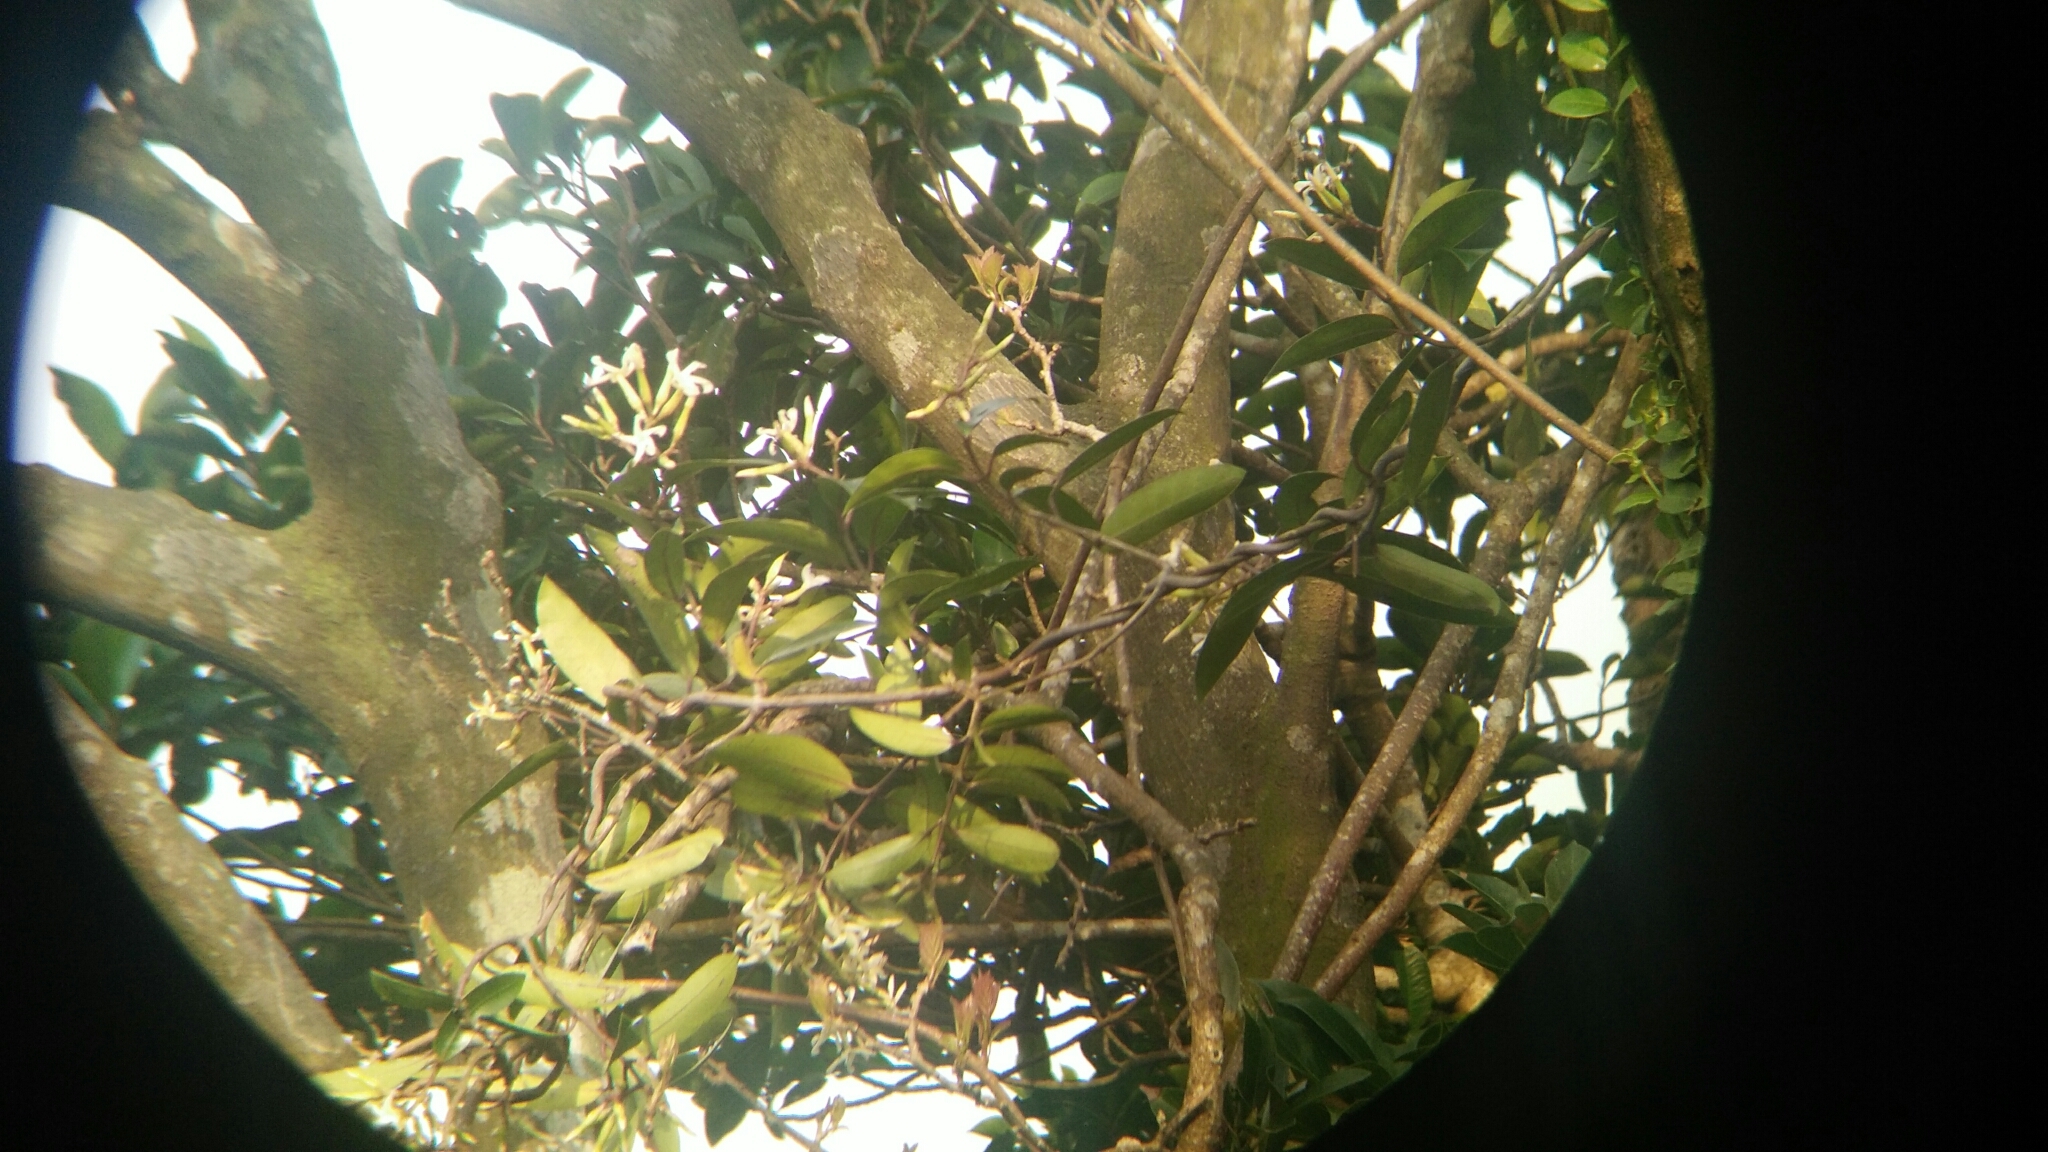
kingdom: Plantae
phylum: Tracheophyta
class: Magnoliopsida
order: Gentianales
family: Apocynaceae
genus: Anodendron
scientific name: Anodendron benthamianum
